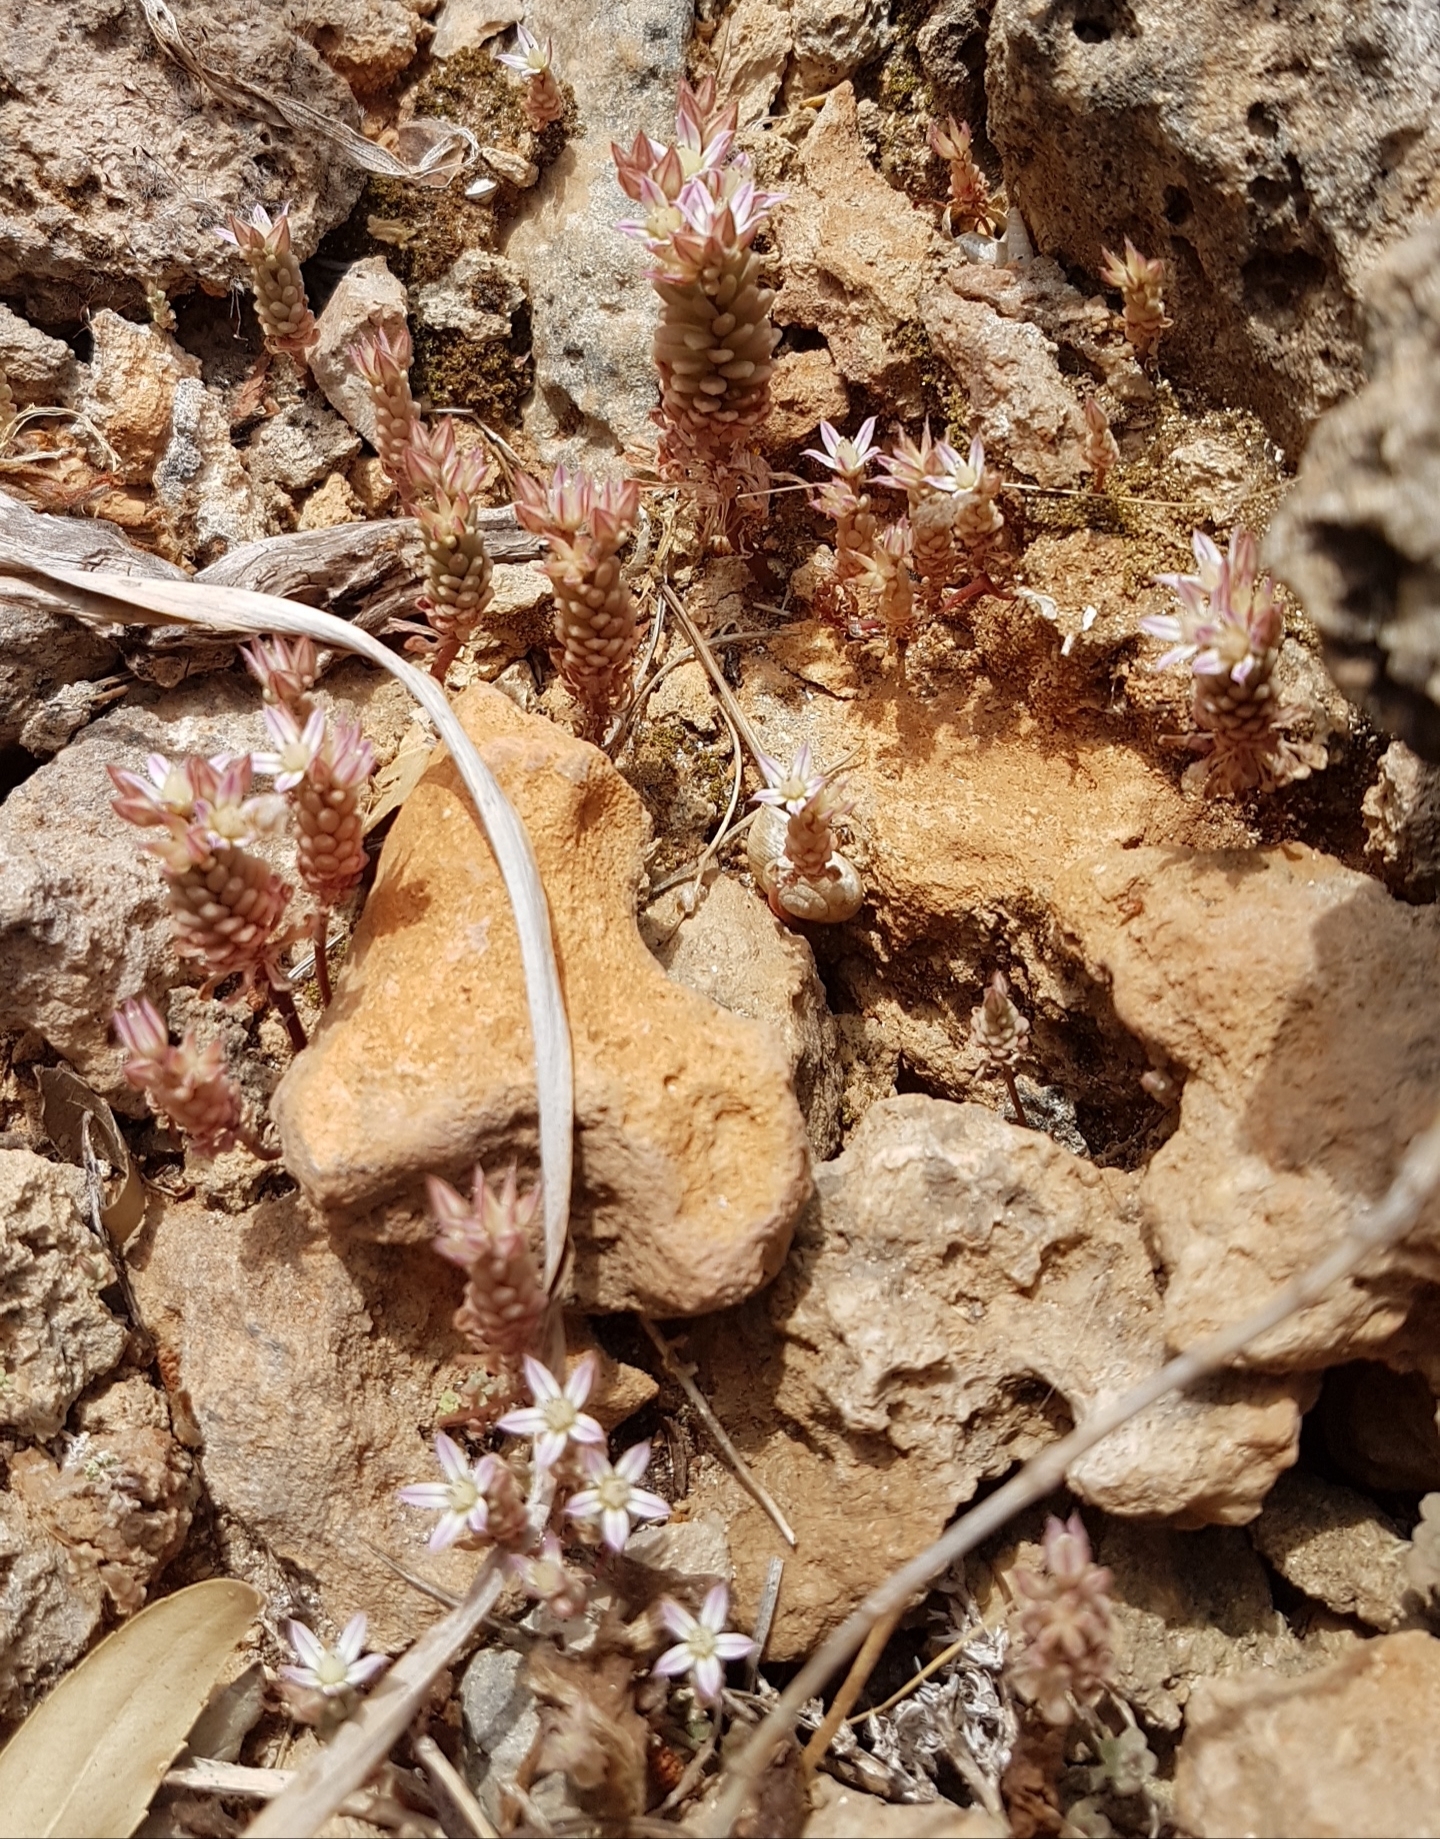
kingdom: Plantae
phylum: Tracheophyta
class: Magnoliopsida
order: Saxifragales
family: Crassulaceae
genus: Sedum
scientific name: Sedum rubens
